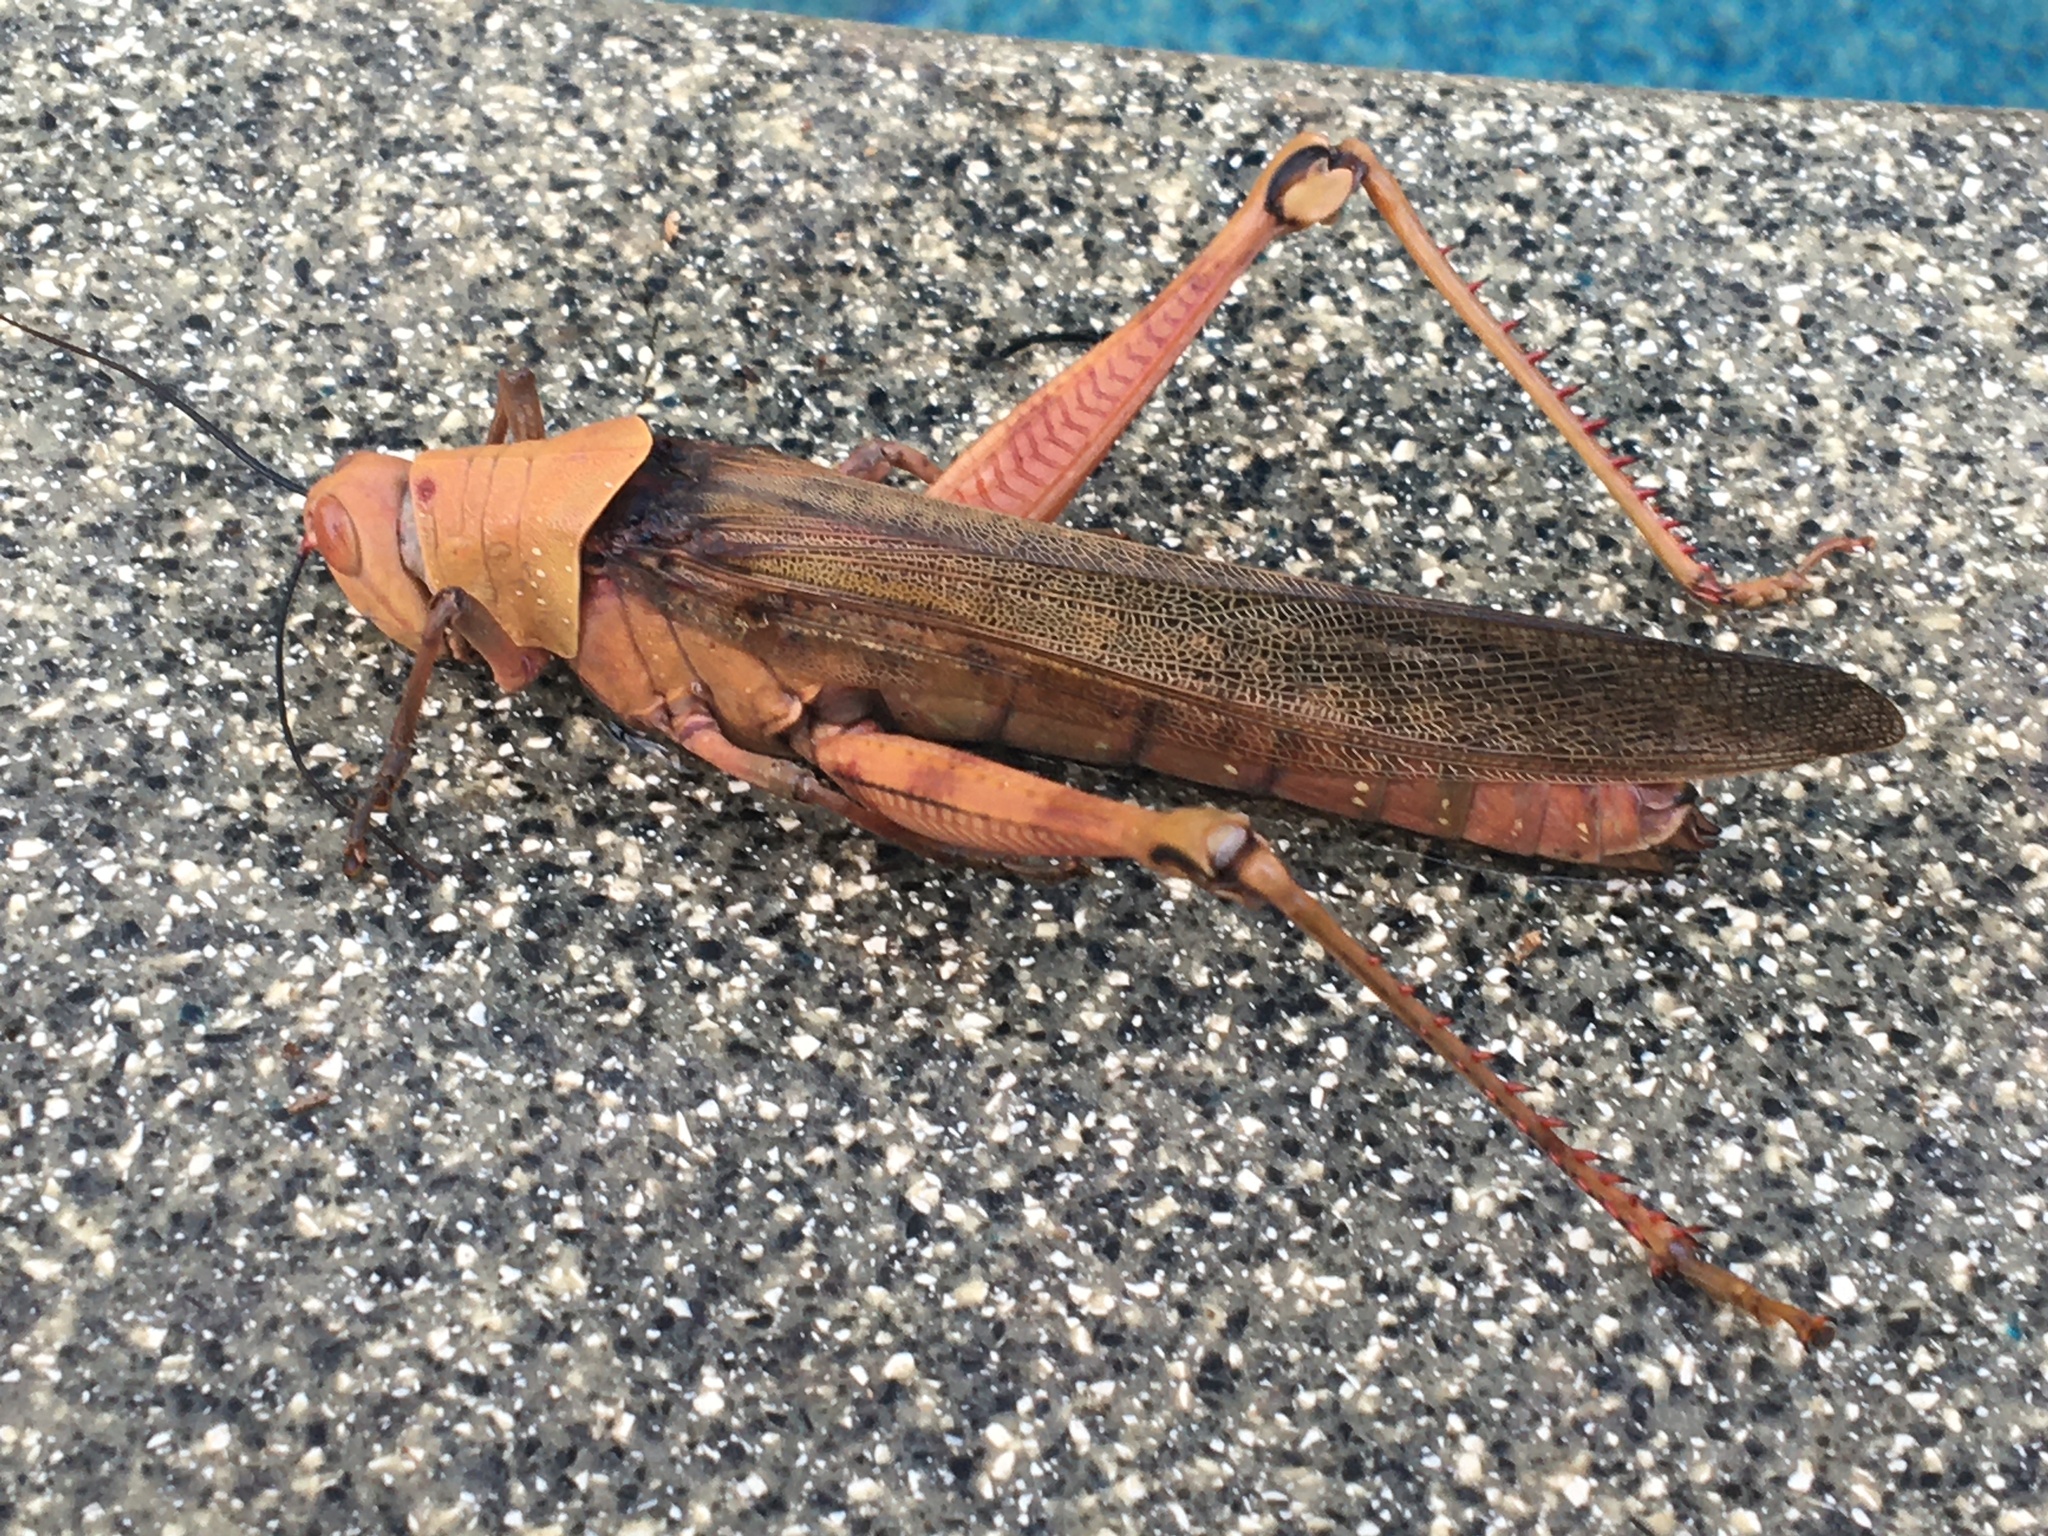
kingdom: Animalia
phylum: Arthropoda
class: Insecta
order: Orthoptera
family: Acrididae
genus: Valanga
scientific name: Valanga irregularis
